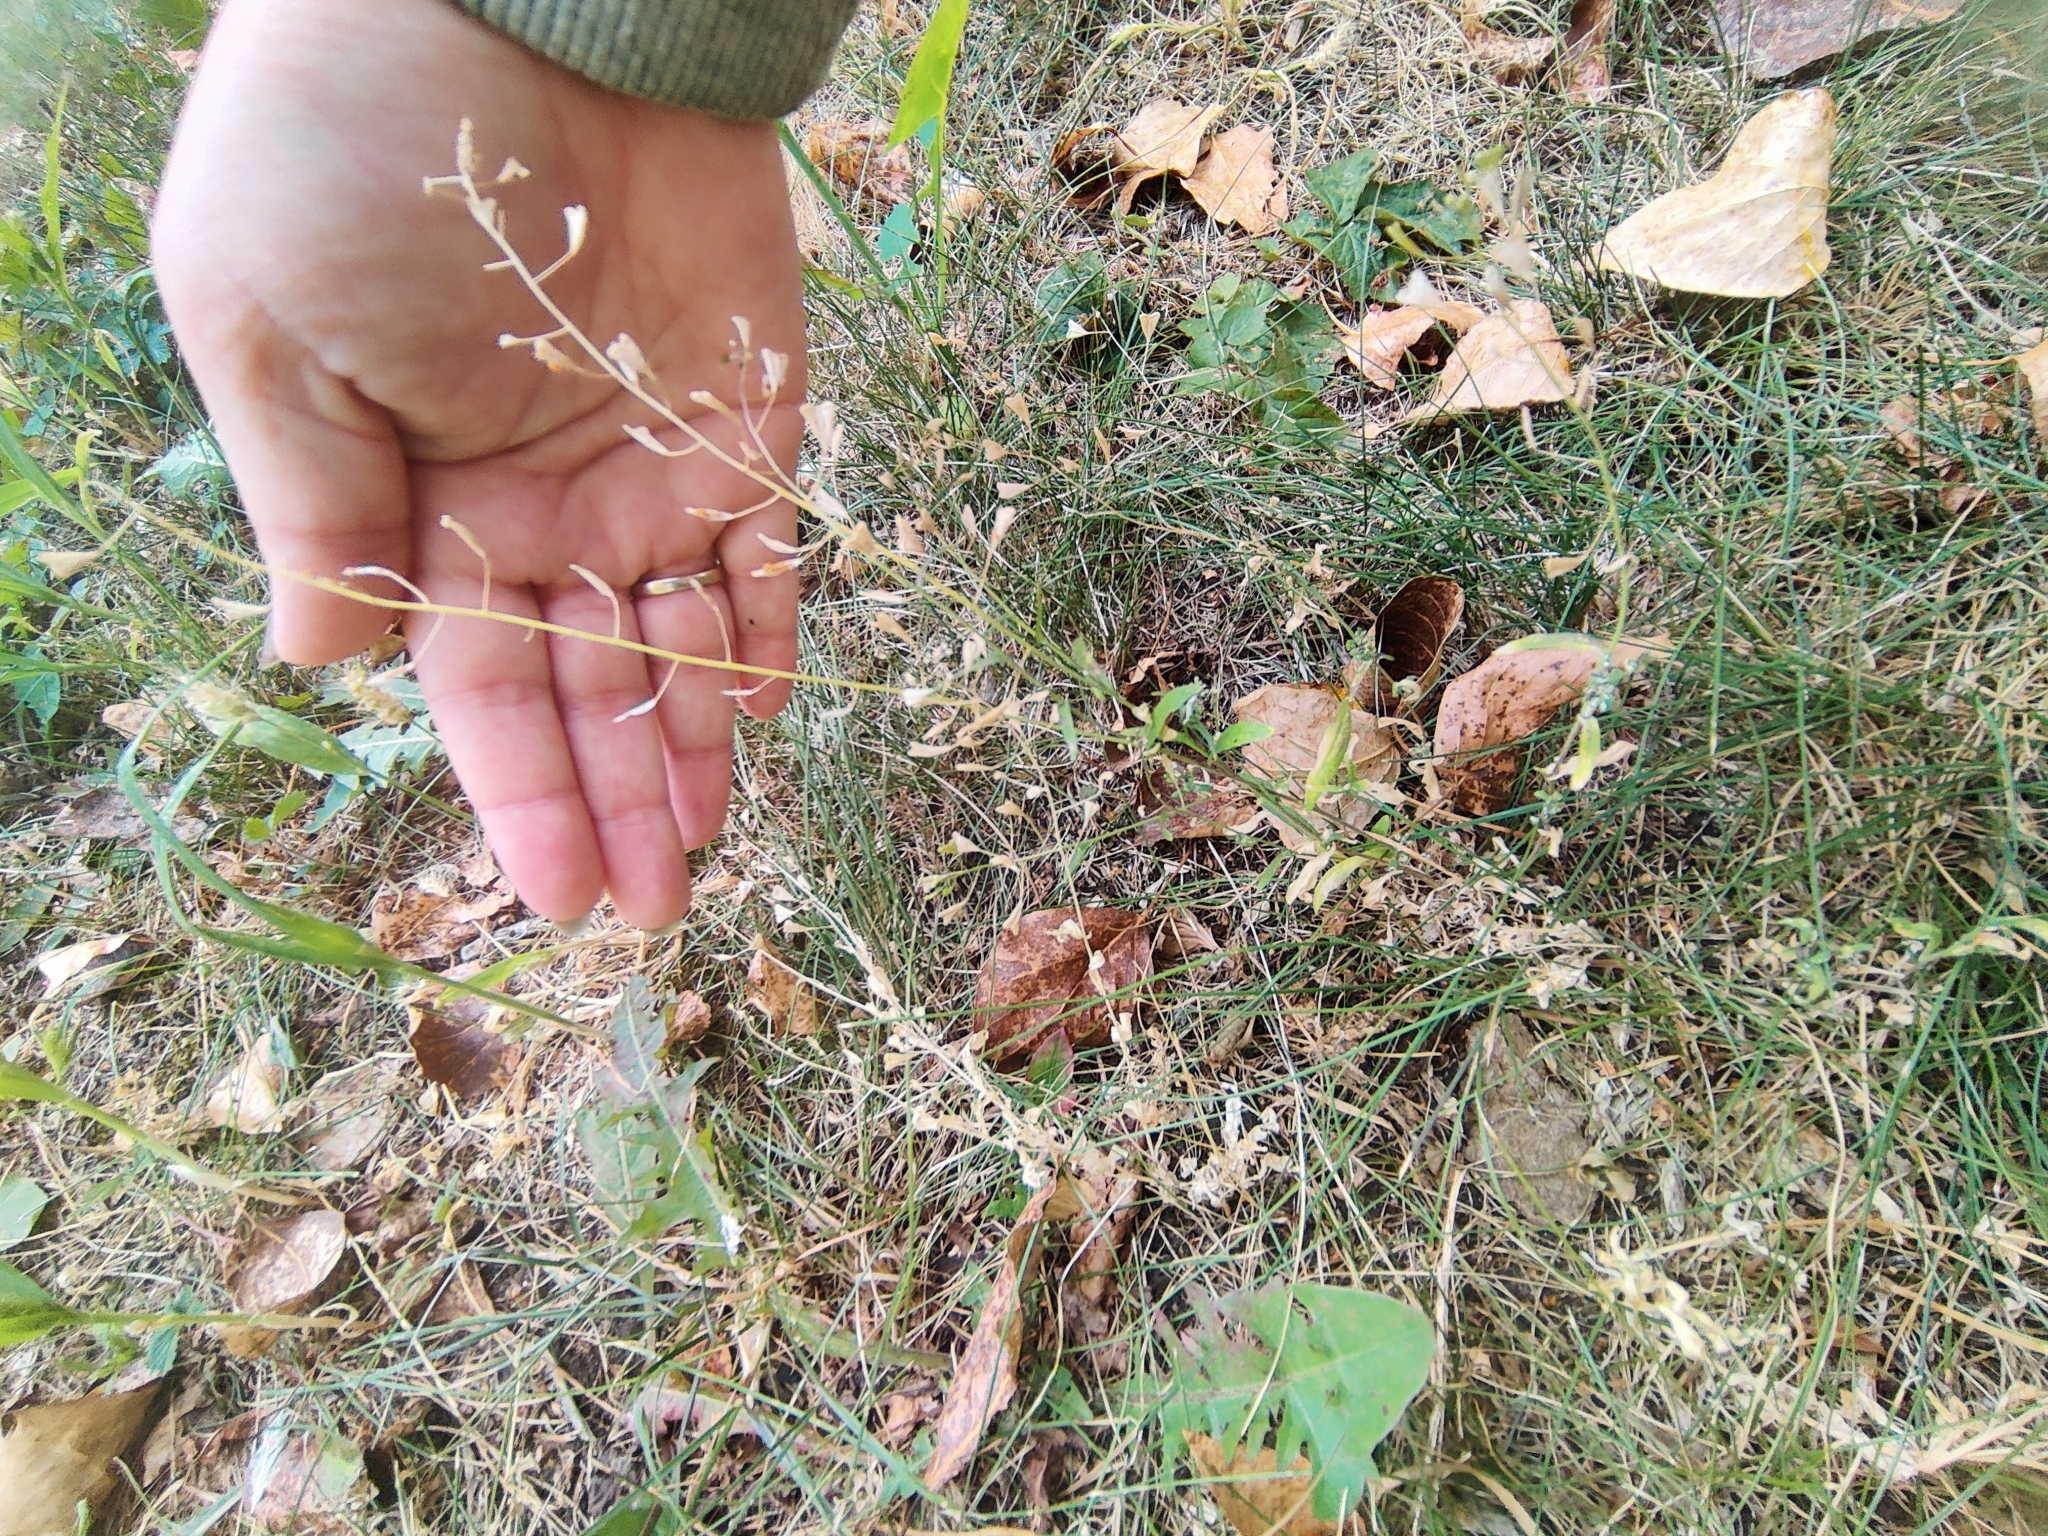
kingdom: Plantae
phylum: Tracheophyta
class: Magnoliopsida
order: Brassicales
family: Brassicaceae
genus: Capsella
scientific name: Capsella bursa-pastoris
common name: Shepherd's purse
